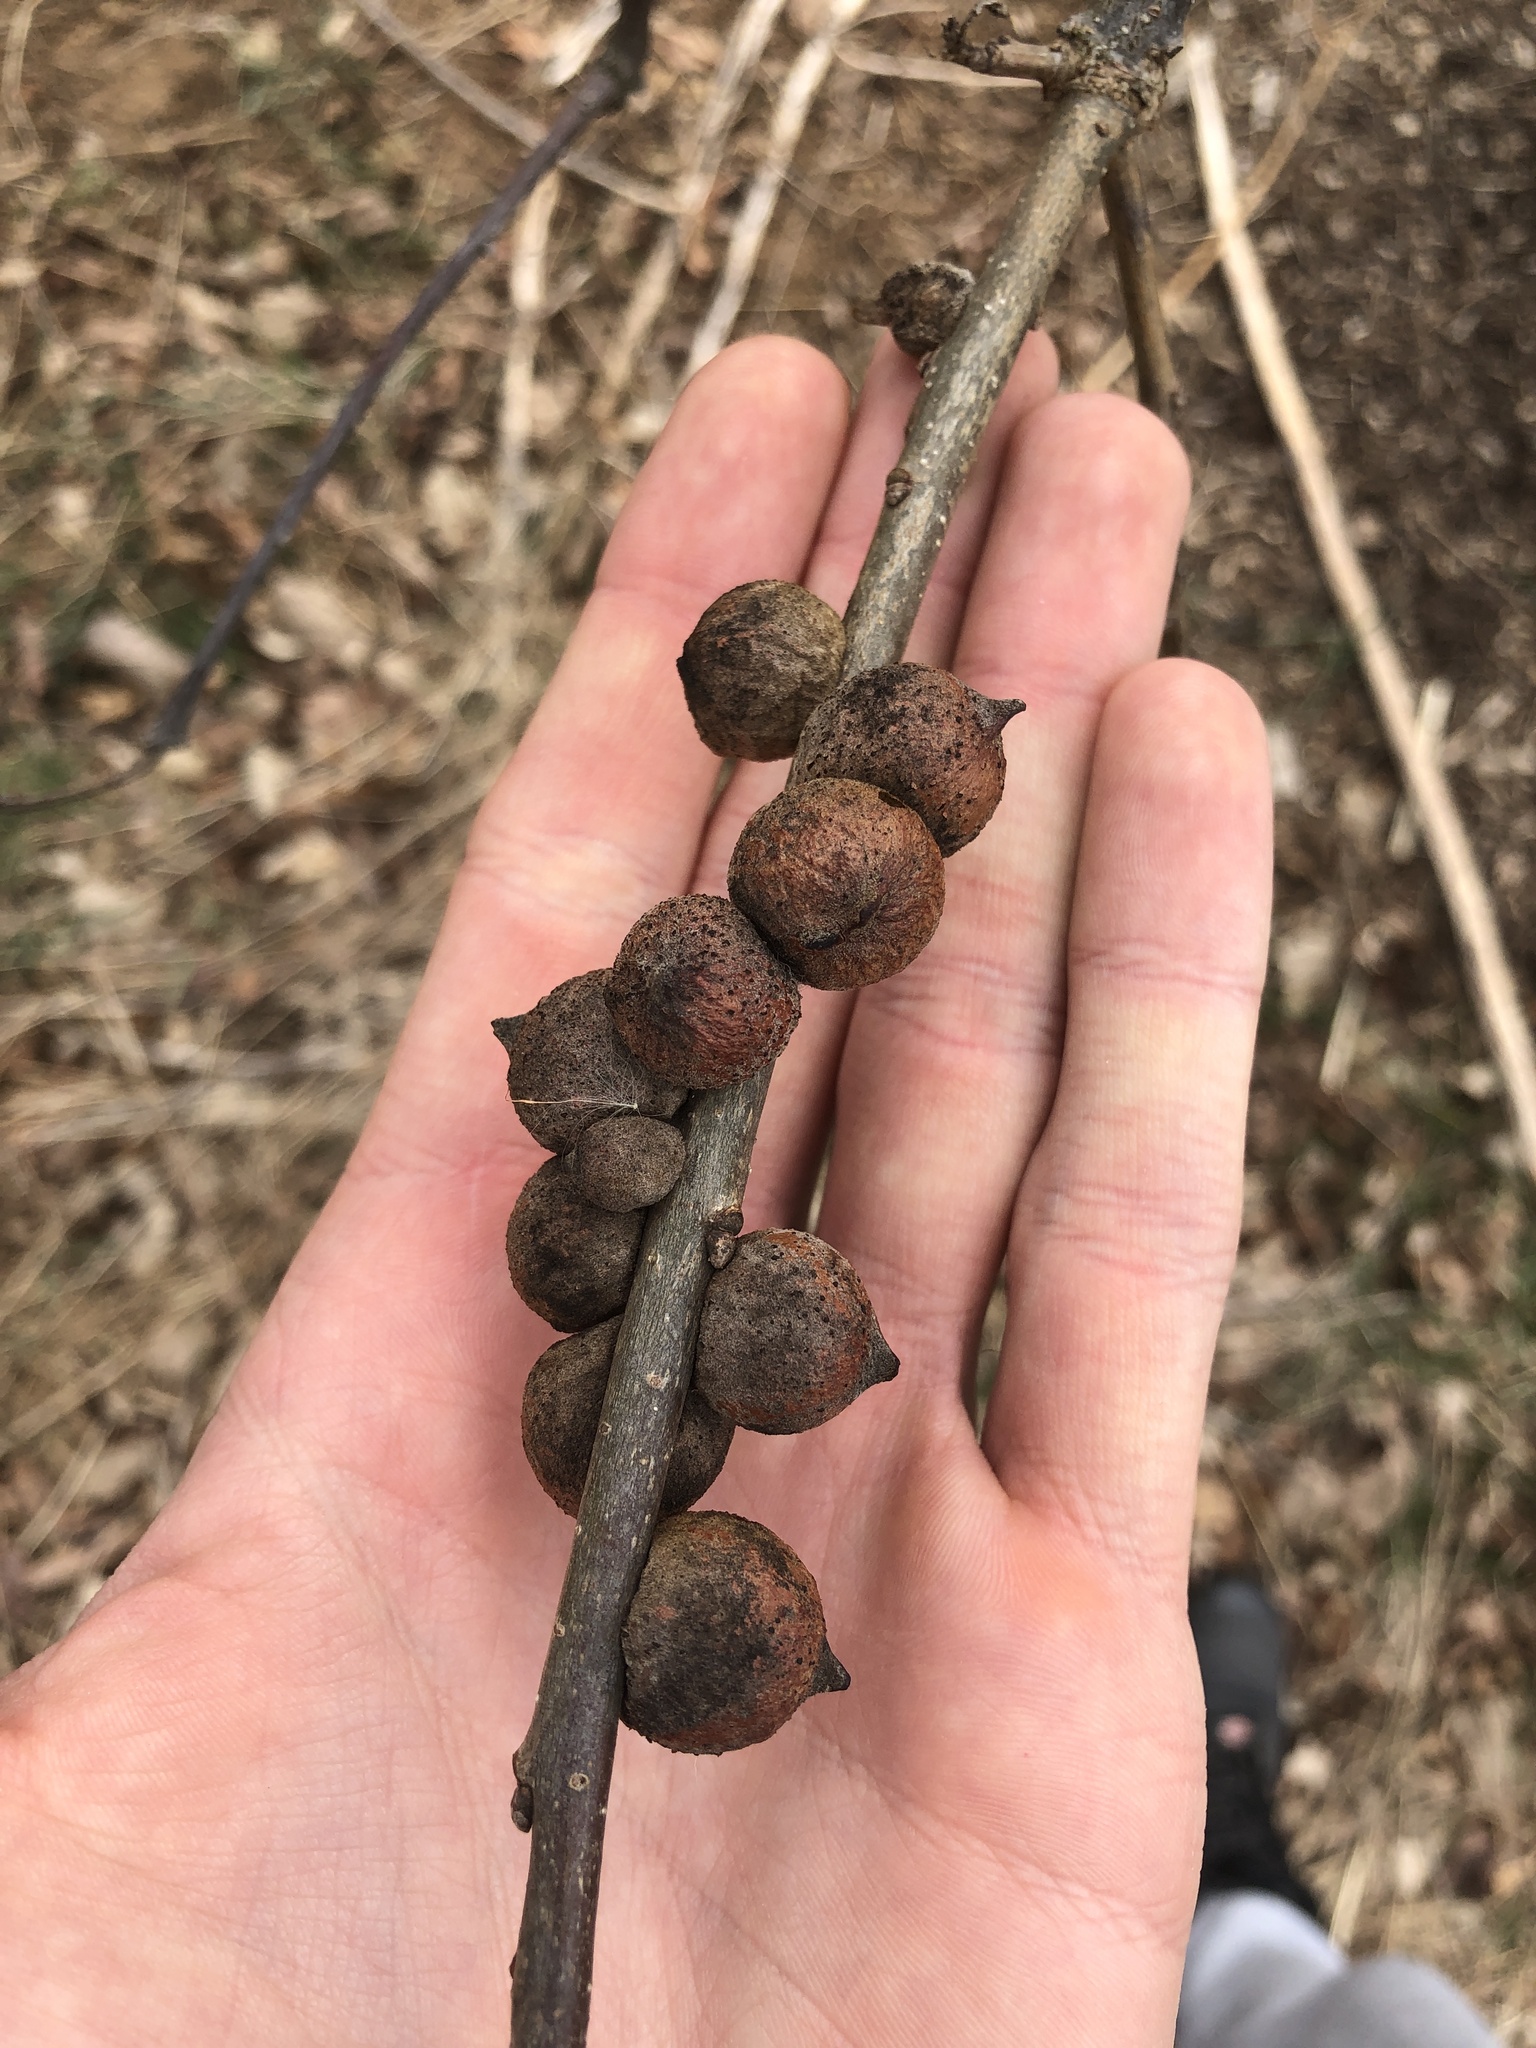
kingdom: Animalia
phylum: Arthropoda
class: Insecta
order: Hymenoptera
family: Cynipidae
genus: Disholcaspis
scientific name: Disholcaspis
